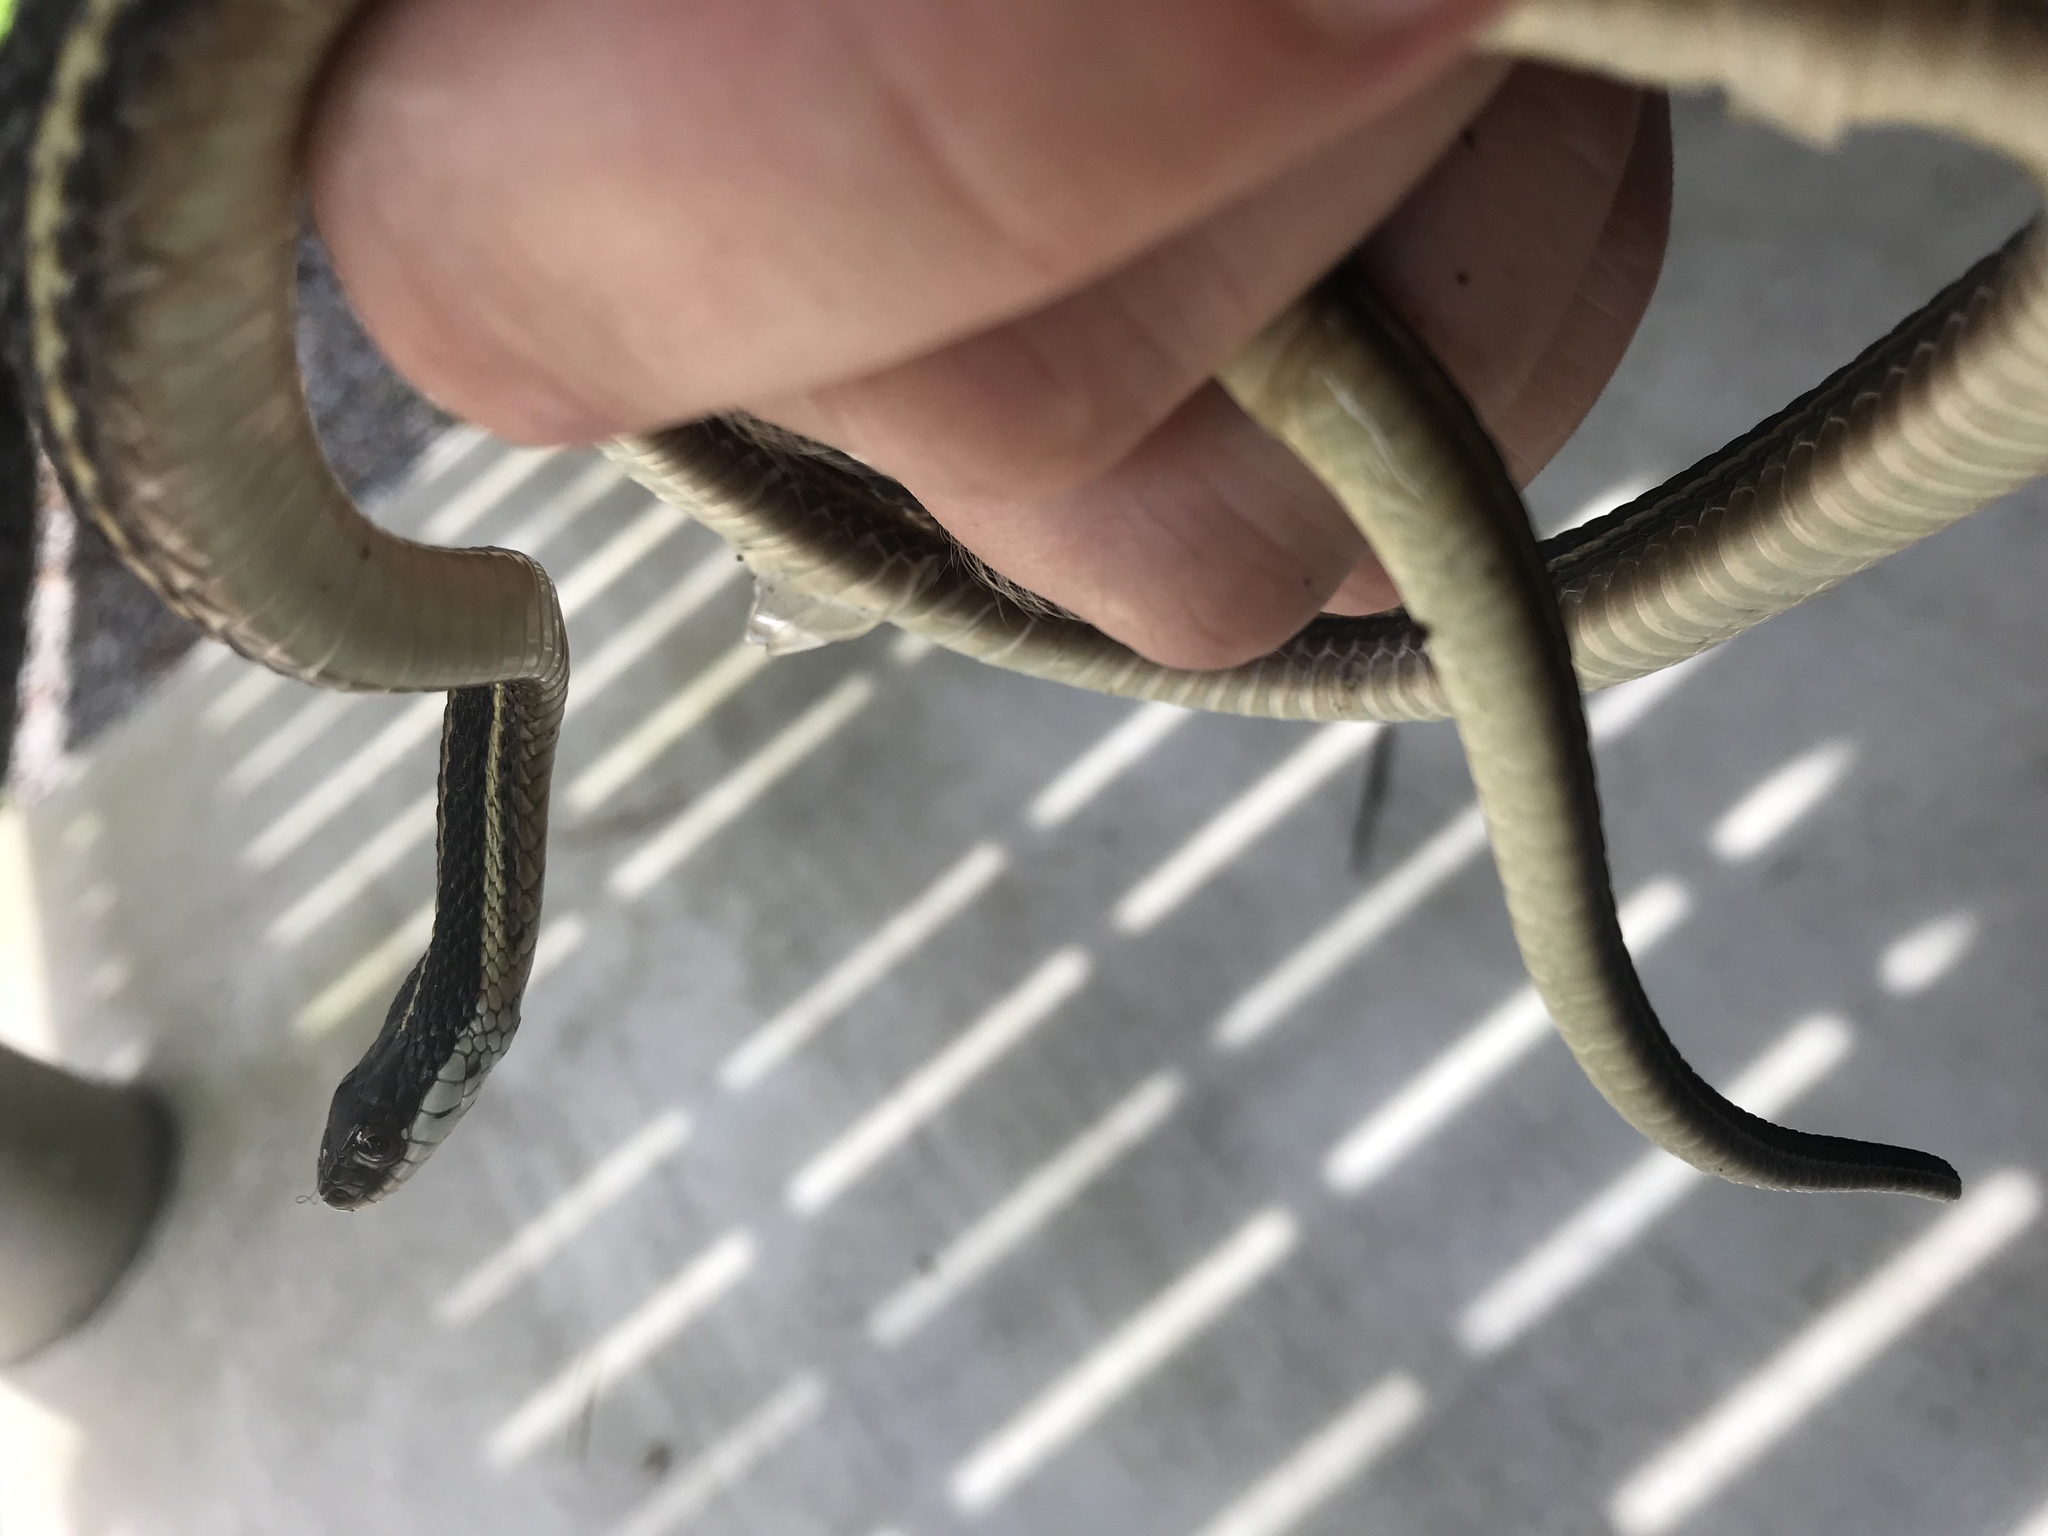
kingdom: Animalia
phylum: Chordata
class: Squamata
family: Colubridae
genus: Thamnophis
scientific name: Thamnophis saurita
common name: Eastern ribbonsnake
